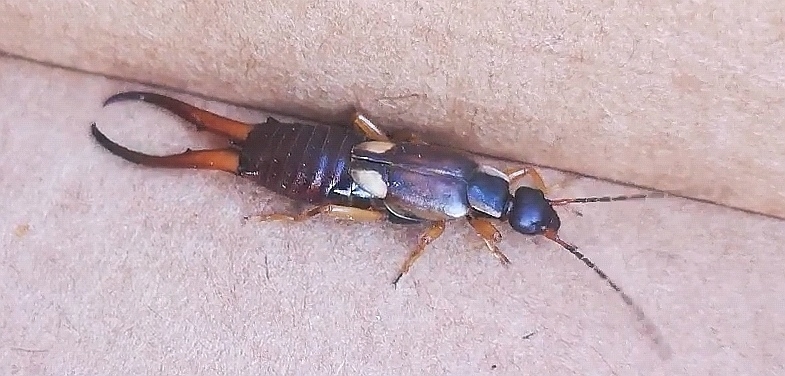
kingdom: Animalia
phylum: Arthropoda
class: Insecta
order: Dermaptera
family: Forficulidae
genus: Forficula
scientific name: Forficula
